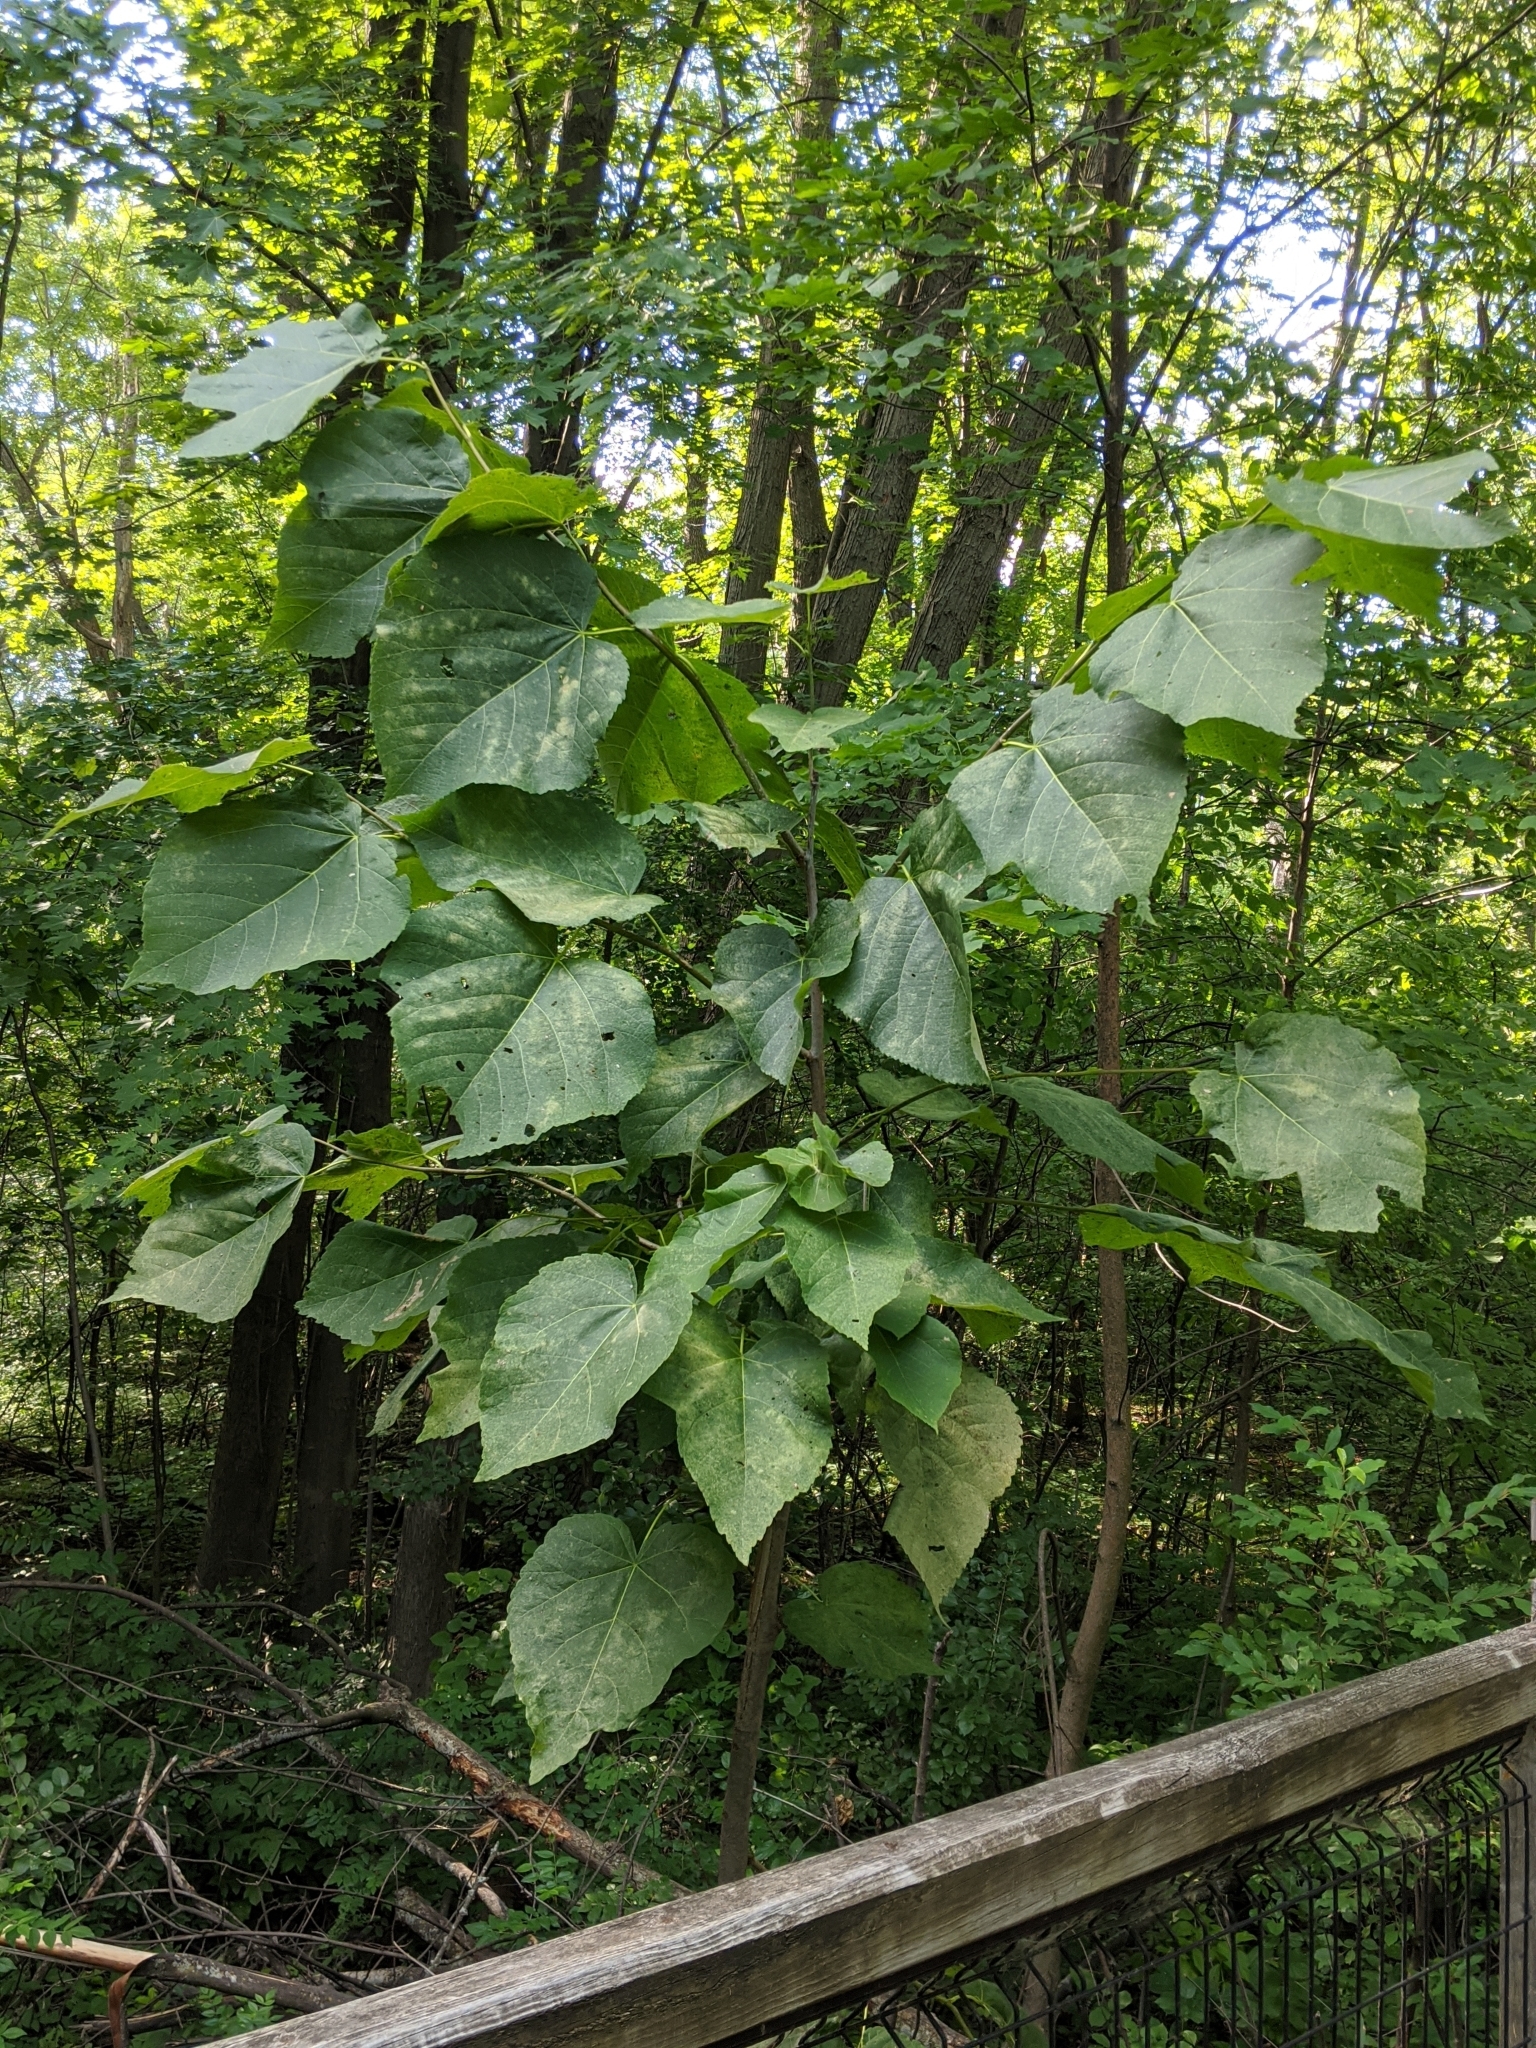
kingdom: Plantae
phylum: Tracheophyta
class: Magnoliopsida
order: Malvales
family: Malvaceae
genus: Tilia
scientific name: Tilia americana
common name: Basswood
